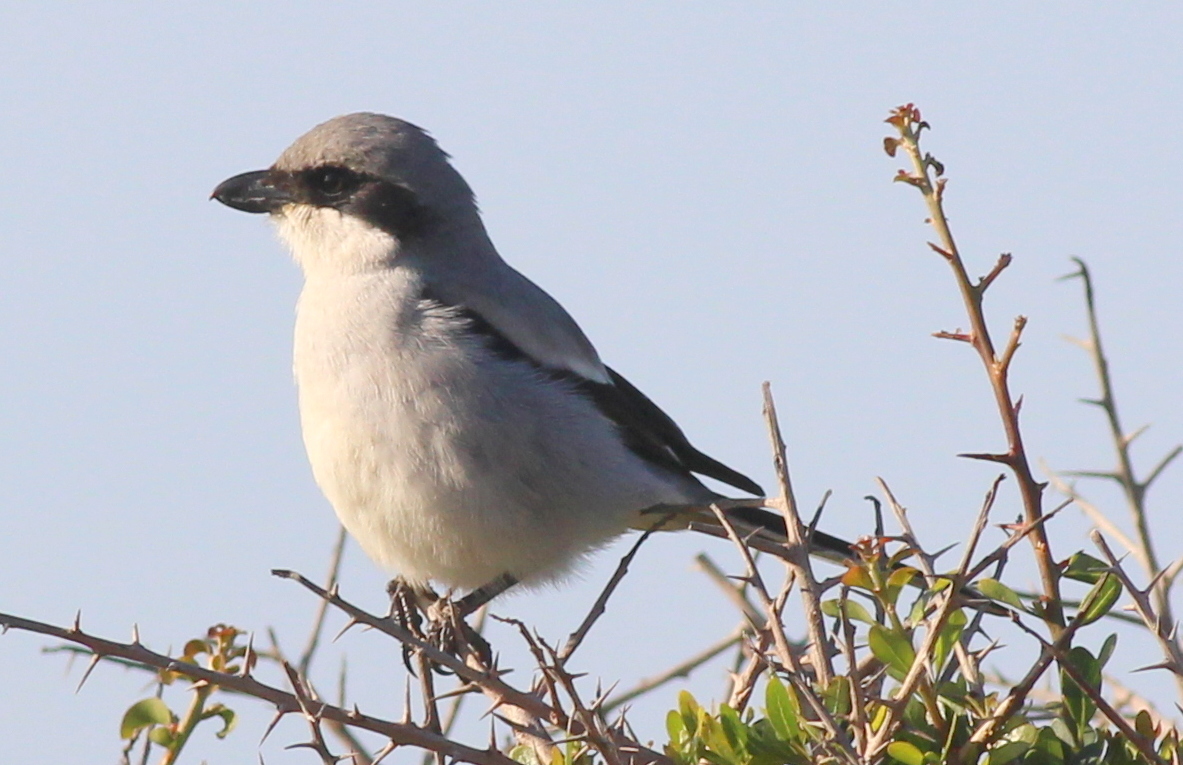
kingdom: Animalia
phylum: Chordata
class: Aves
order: Passeriformes
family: Laniidae
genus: Lanius
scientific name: Lanius excubitor
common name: Great grey shrike
